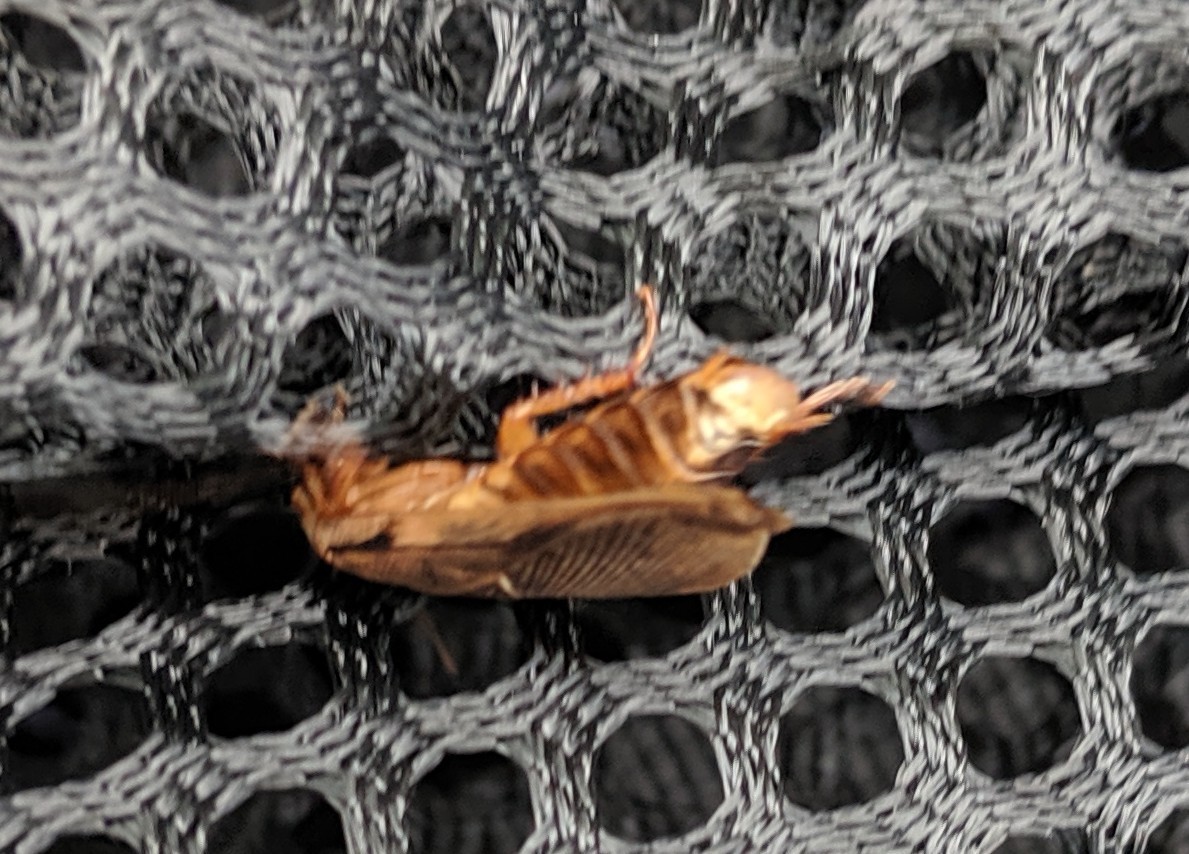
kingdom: Animalia
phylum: Arthropoda
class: Insecta
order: Blattodea
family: Blaberidae
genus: Pycnoscelus
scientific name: Pycnoscelus surinamensis
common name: Surinam cockroach
